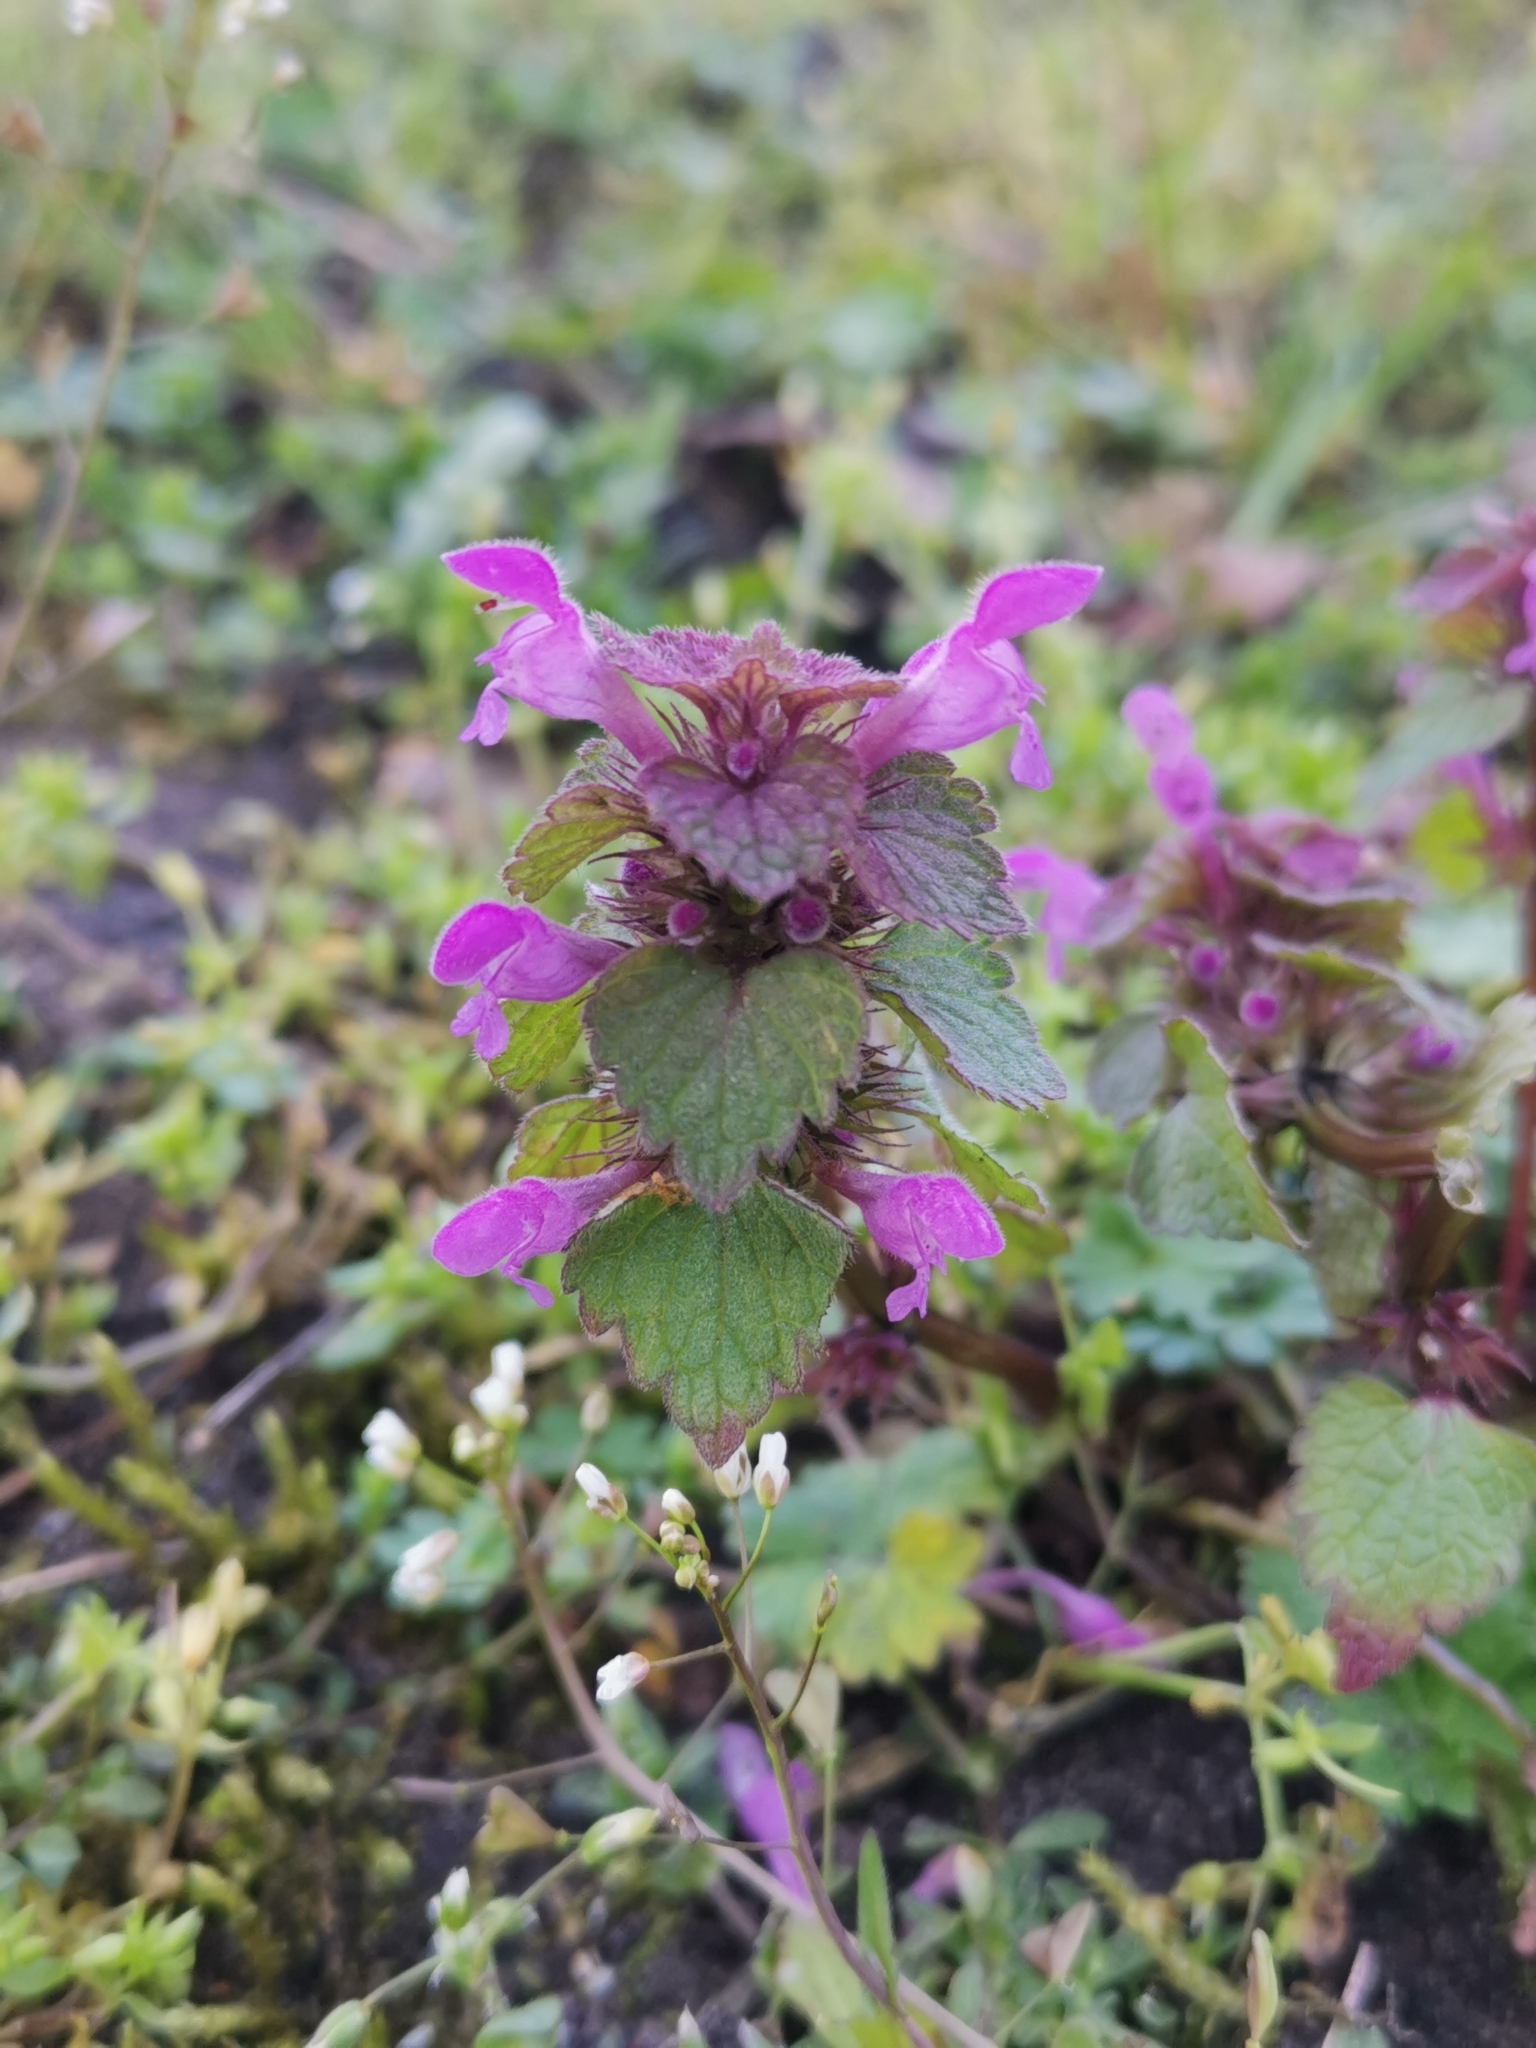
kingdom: Plantae
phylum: Tracheophyta
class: Magnoliopsida
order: Lamiales
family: Lamiaceae
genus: Lamium
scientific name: Lamium purpureum
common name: Red dead-nettle
